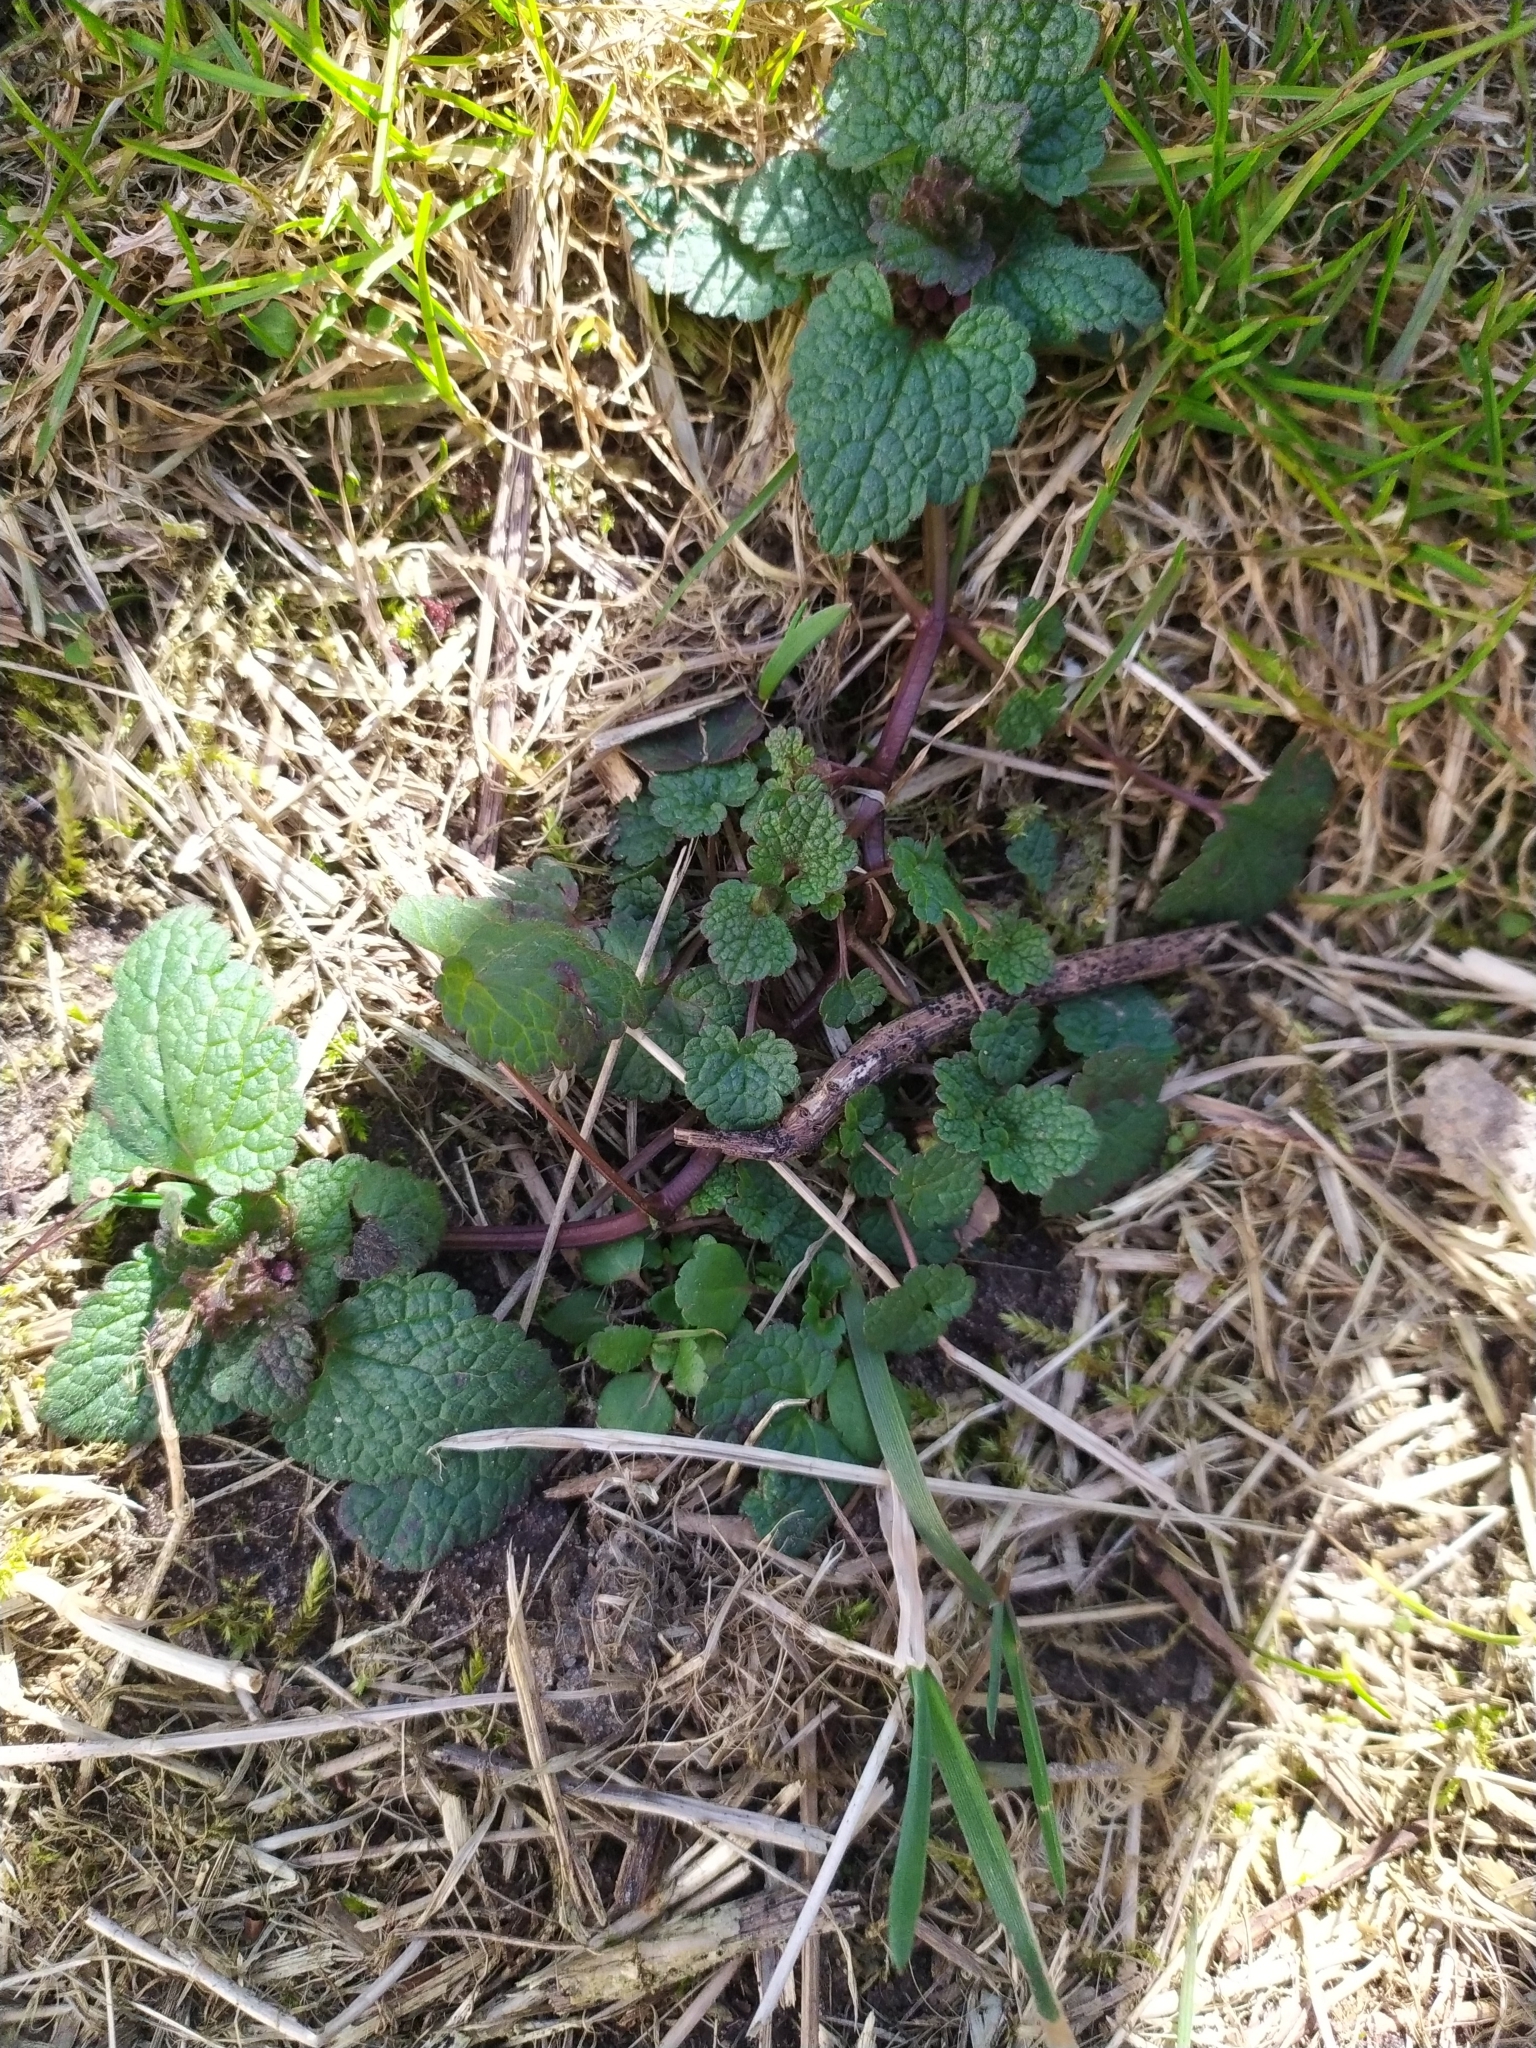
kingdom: Plantae
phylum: Tracheophyta
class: Magnoliopsida
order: Lamiales
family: Lamiaceae
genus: Lamium
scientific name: Lamium purpureum
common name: Red dead-nettle
